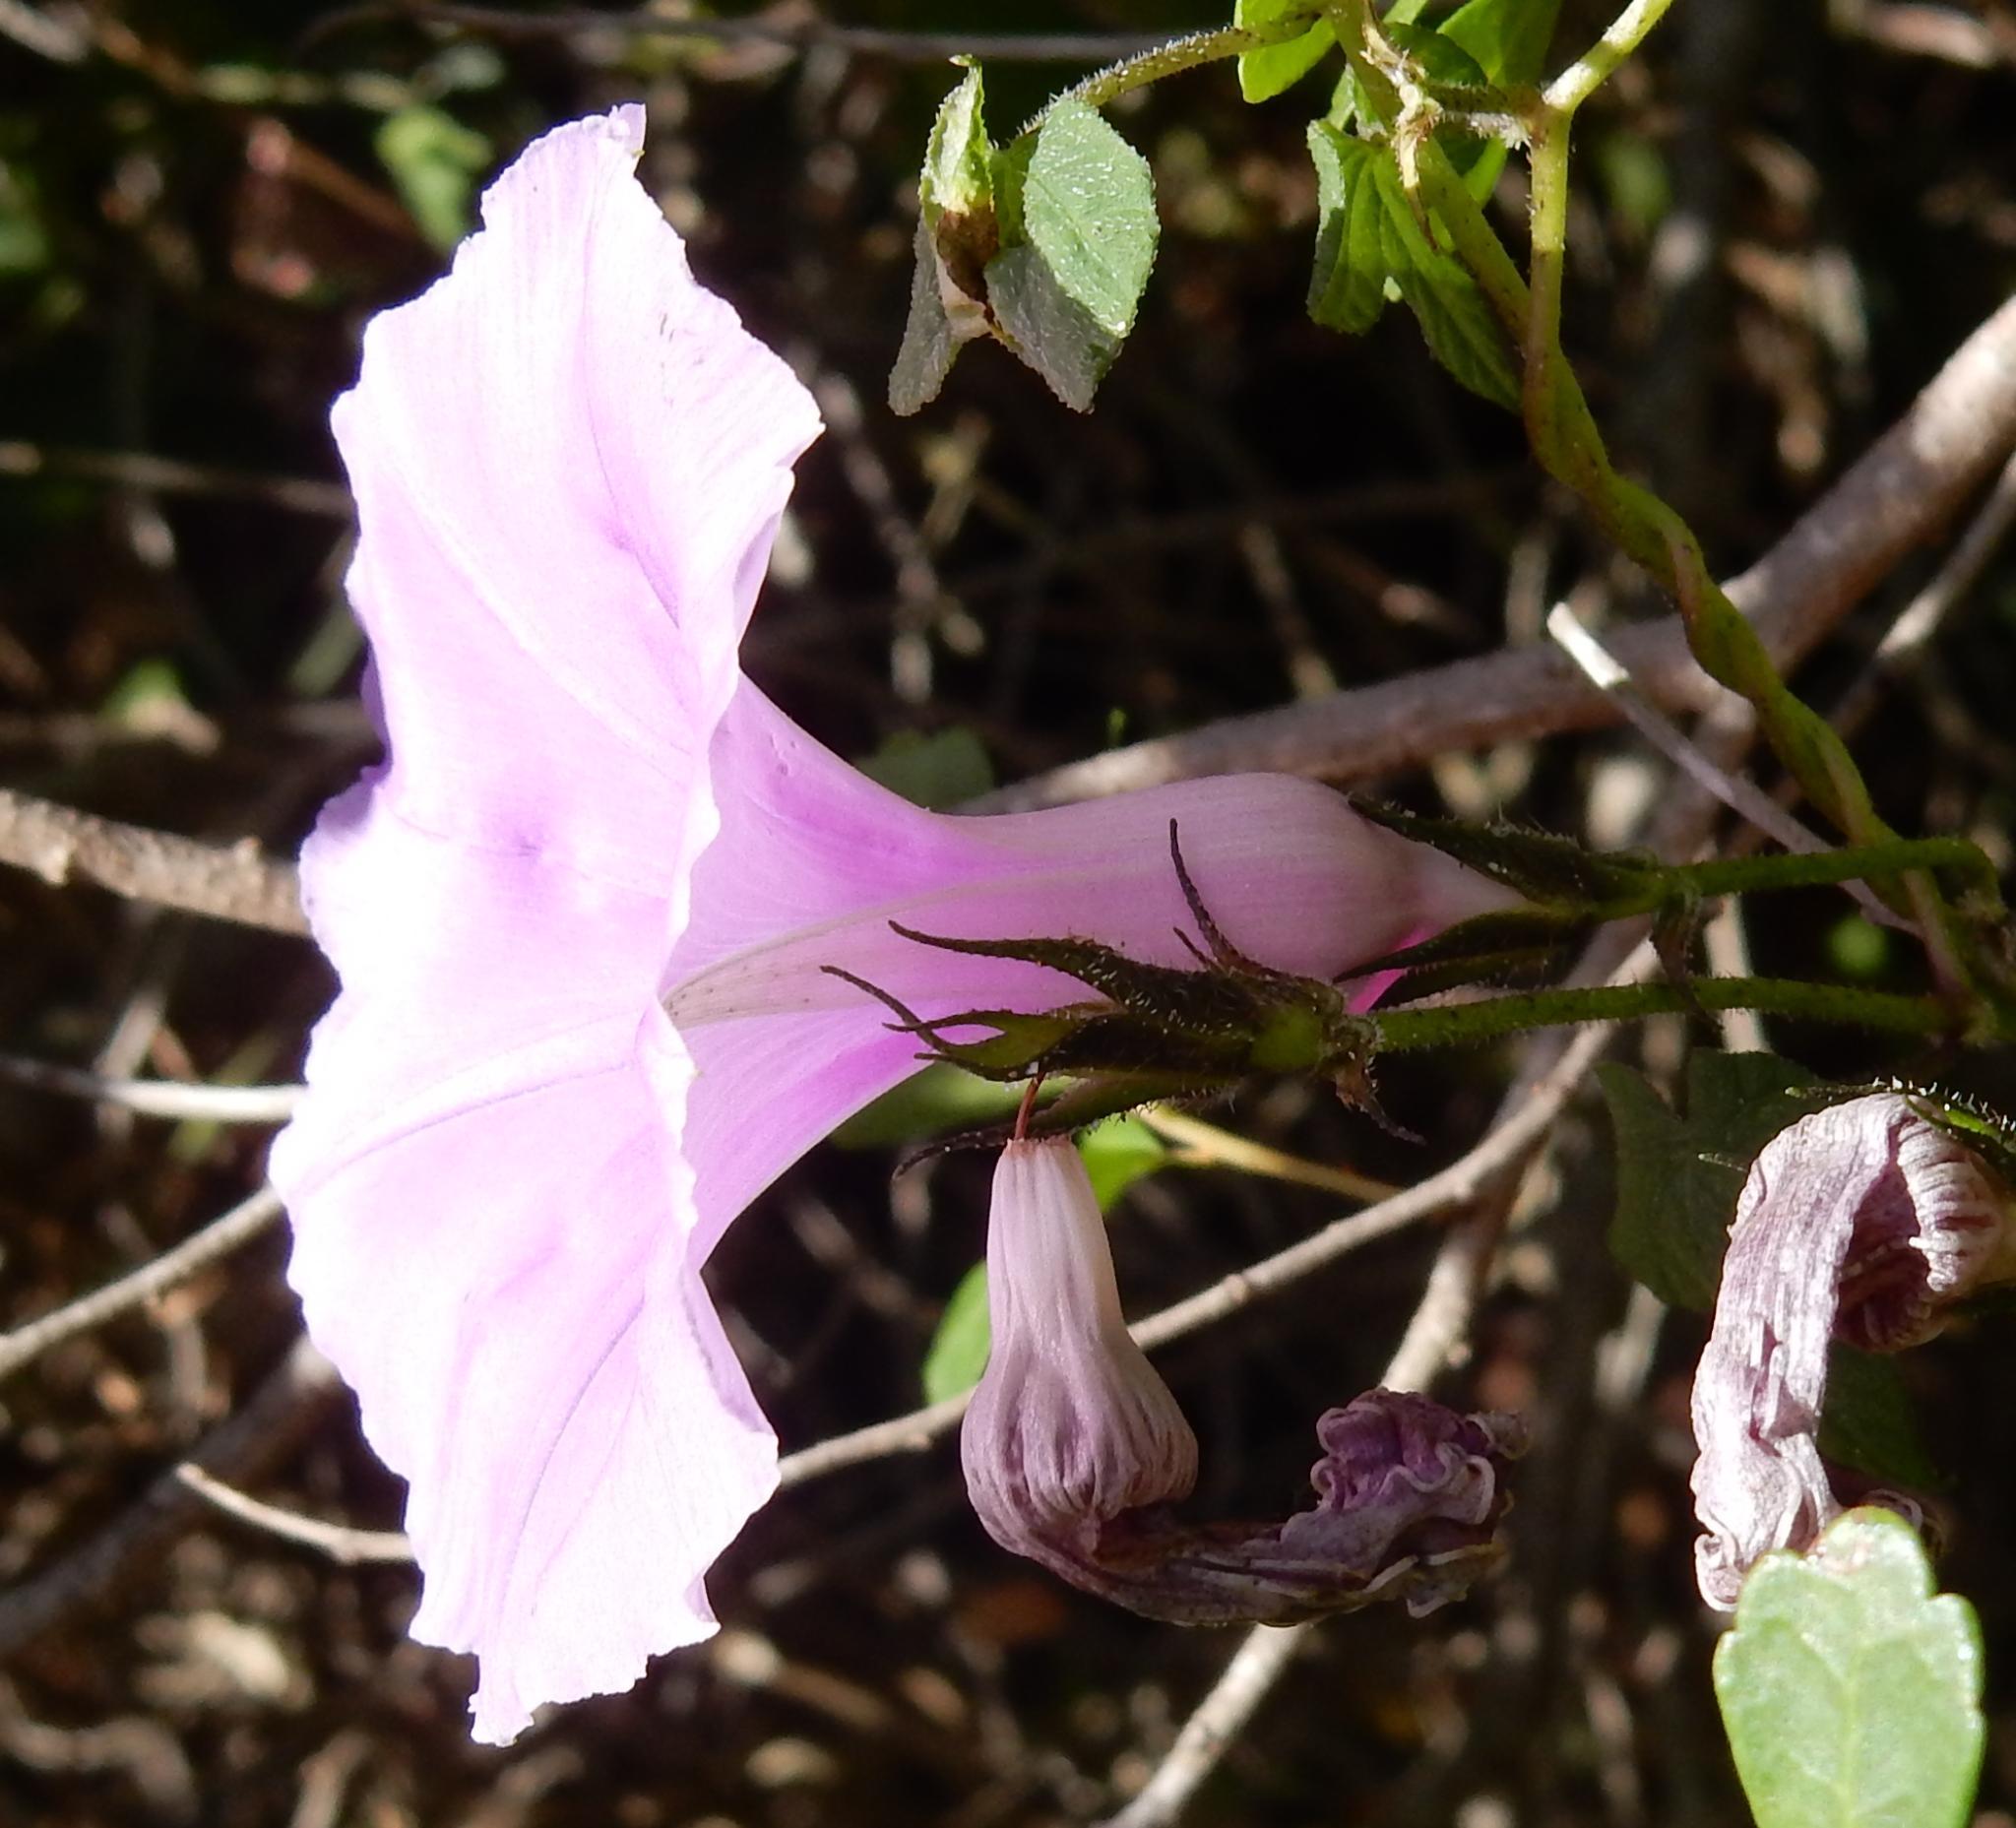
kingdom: Plantae
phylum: Tracheophyta
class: Magnoliopsida
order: Solanales
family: Convolvulaceae
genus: Ipomoea
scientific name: Ipomoea ficifolia
